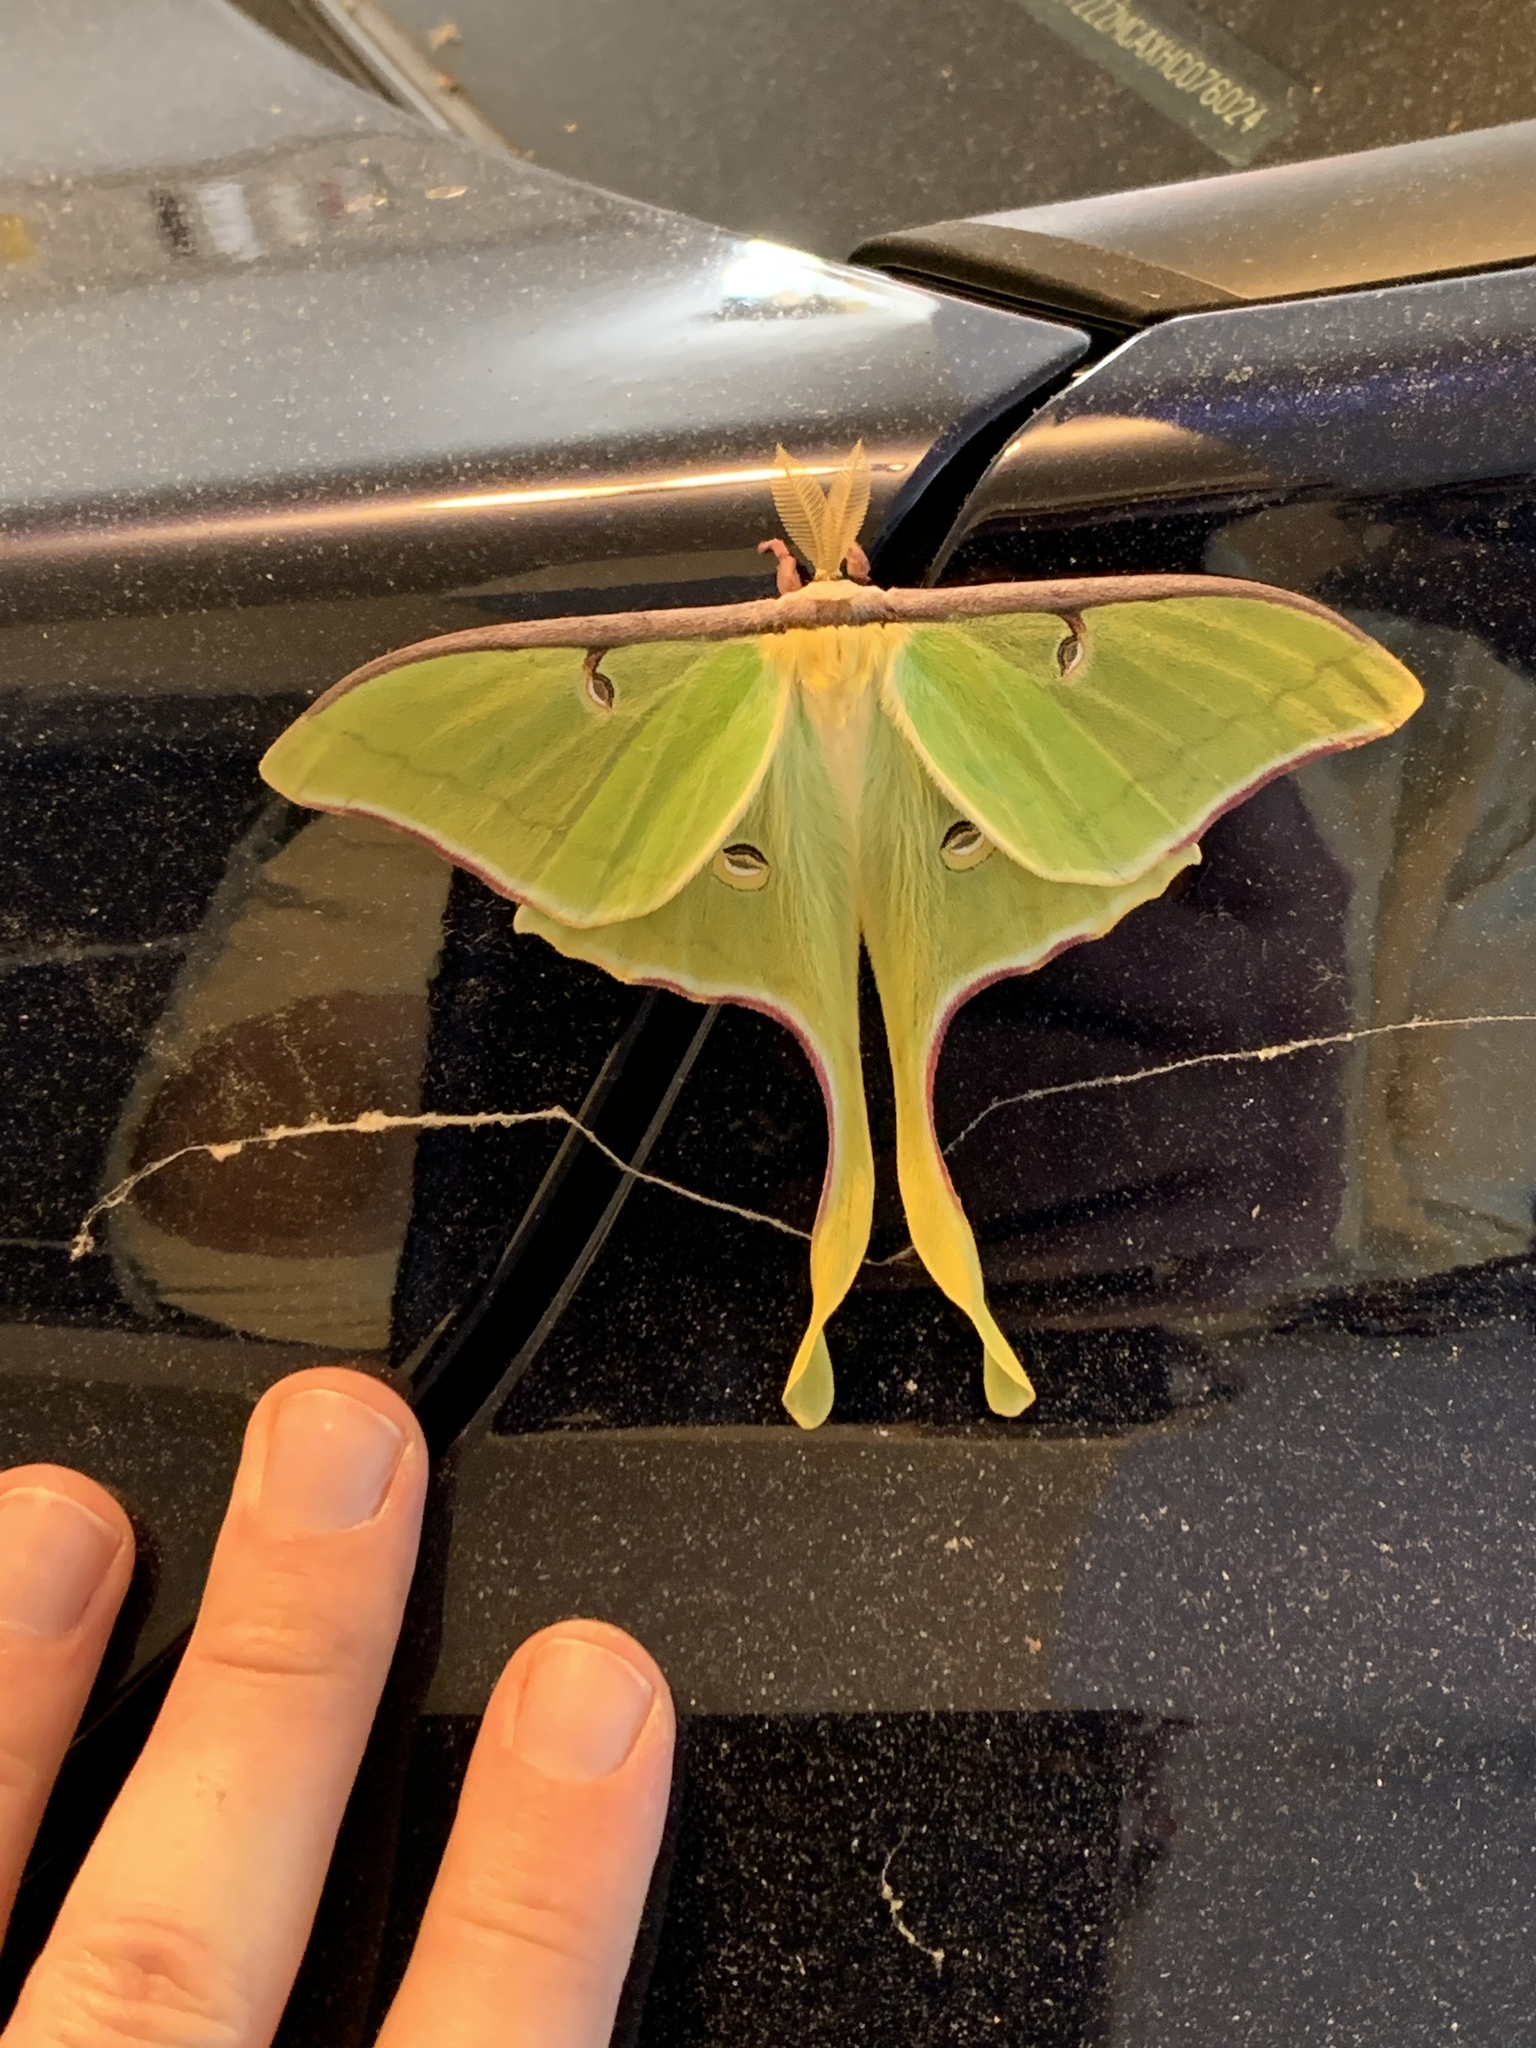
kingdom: Animalia
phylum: Arthropoda
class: Insecta
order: Lepidoptera
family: Saturniidae
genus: Actias
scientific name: Actias luna
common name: Luna moth
